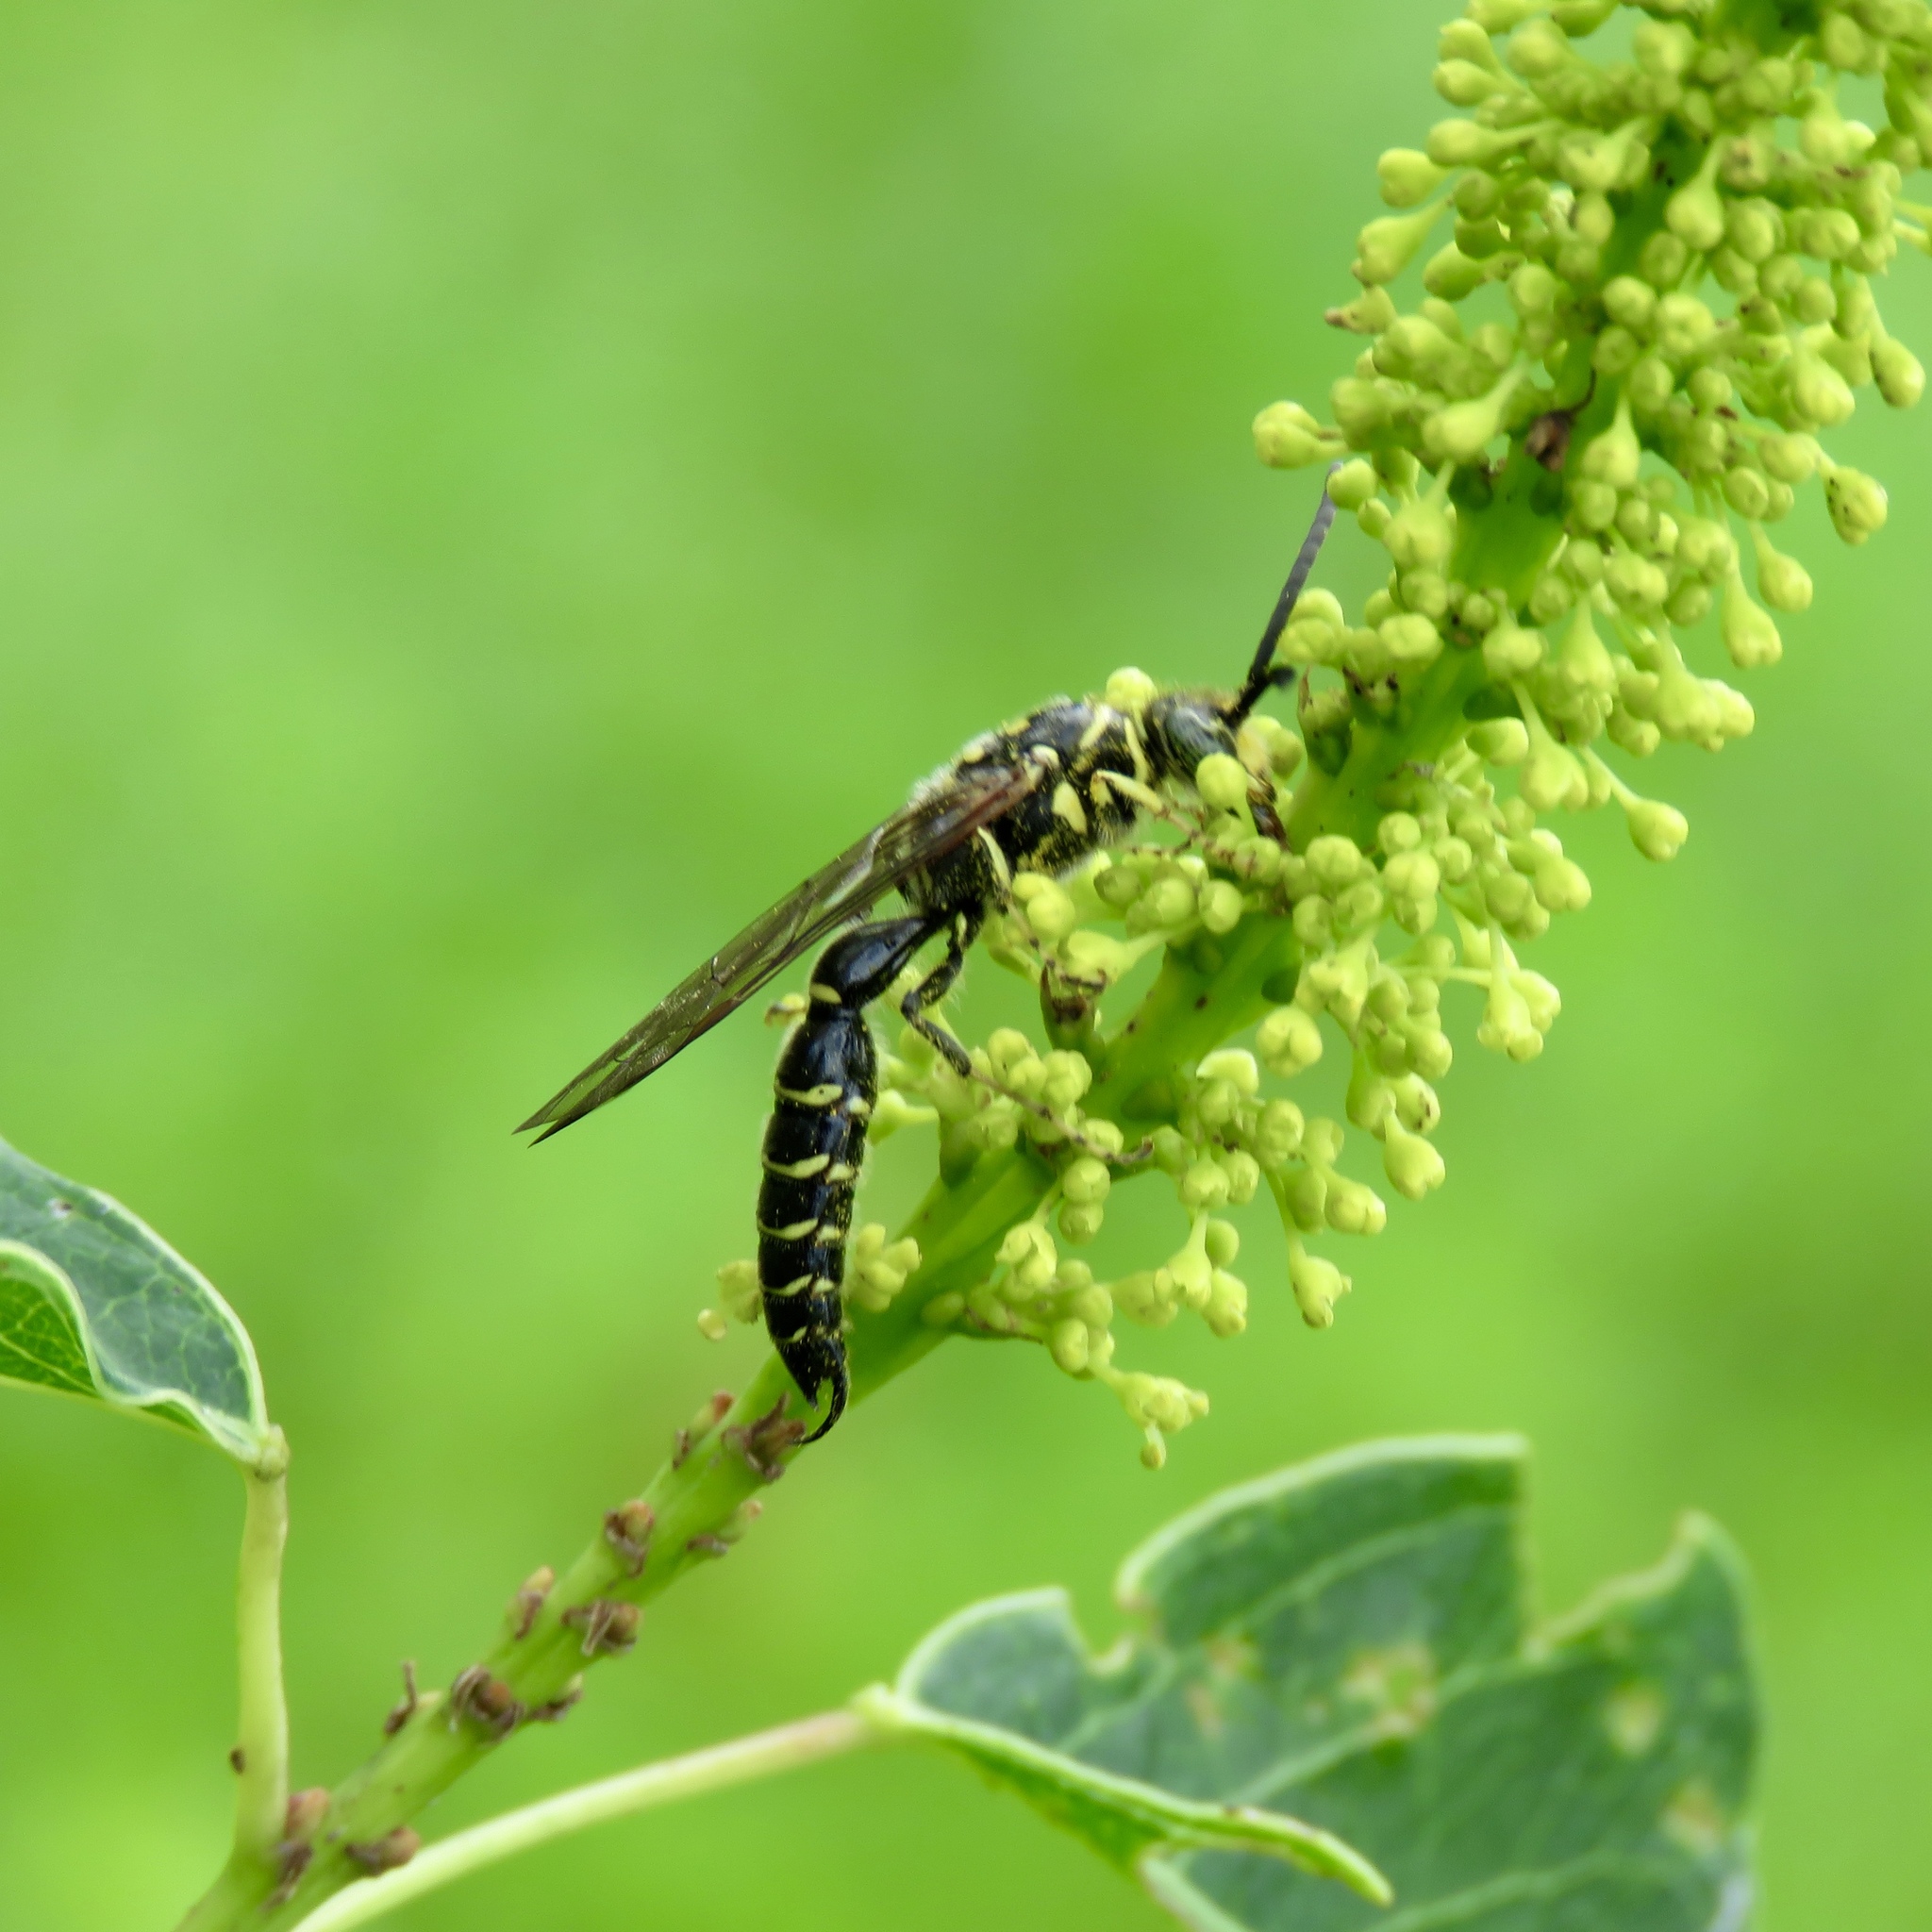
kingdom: Animalia
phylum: Arthropoda
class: Insecta
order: Hymenoptera
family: Tiphiidae
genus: Myzinum
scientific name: Myzinum
